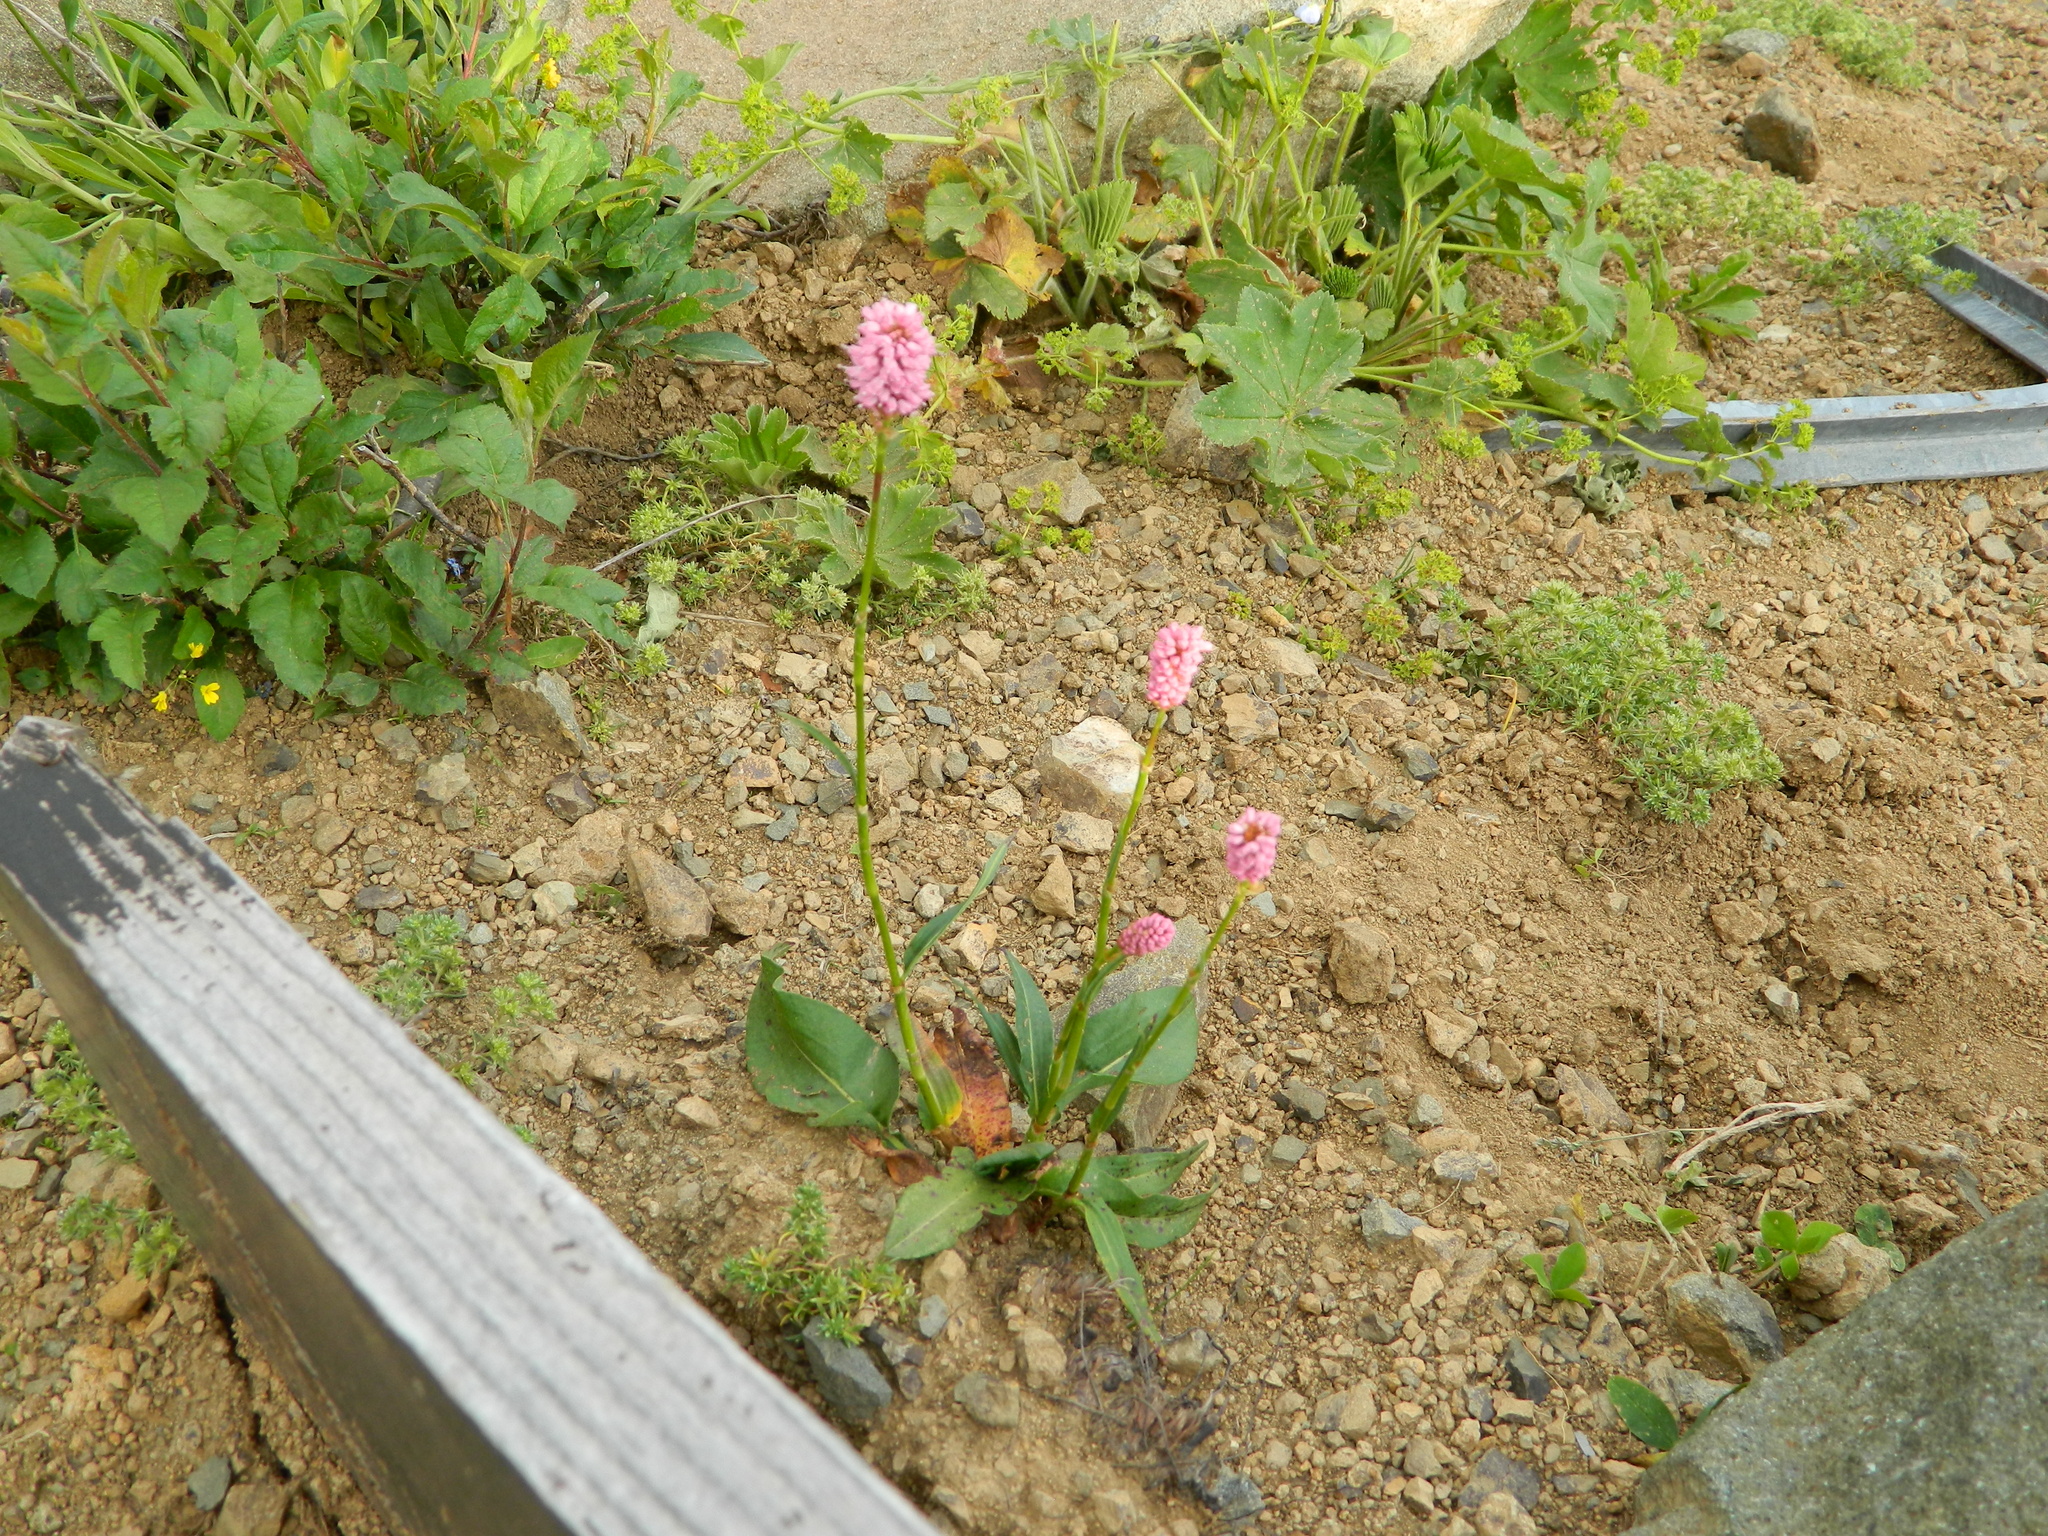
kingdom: Plantae
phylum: Tracheophyta
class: Magnoliopsida
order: Caryophyllales
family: Polygonaceae
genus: Bistorta
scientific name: Bistorta carnea
